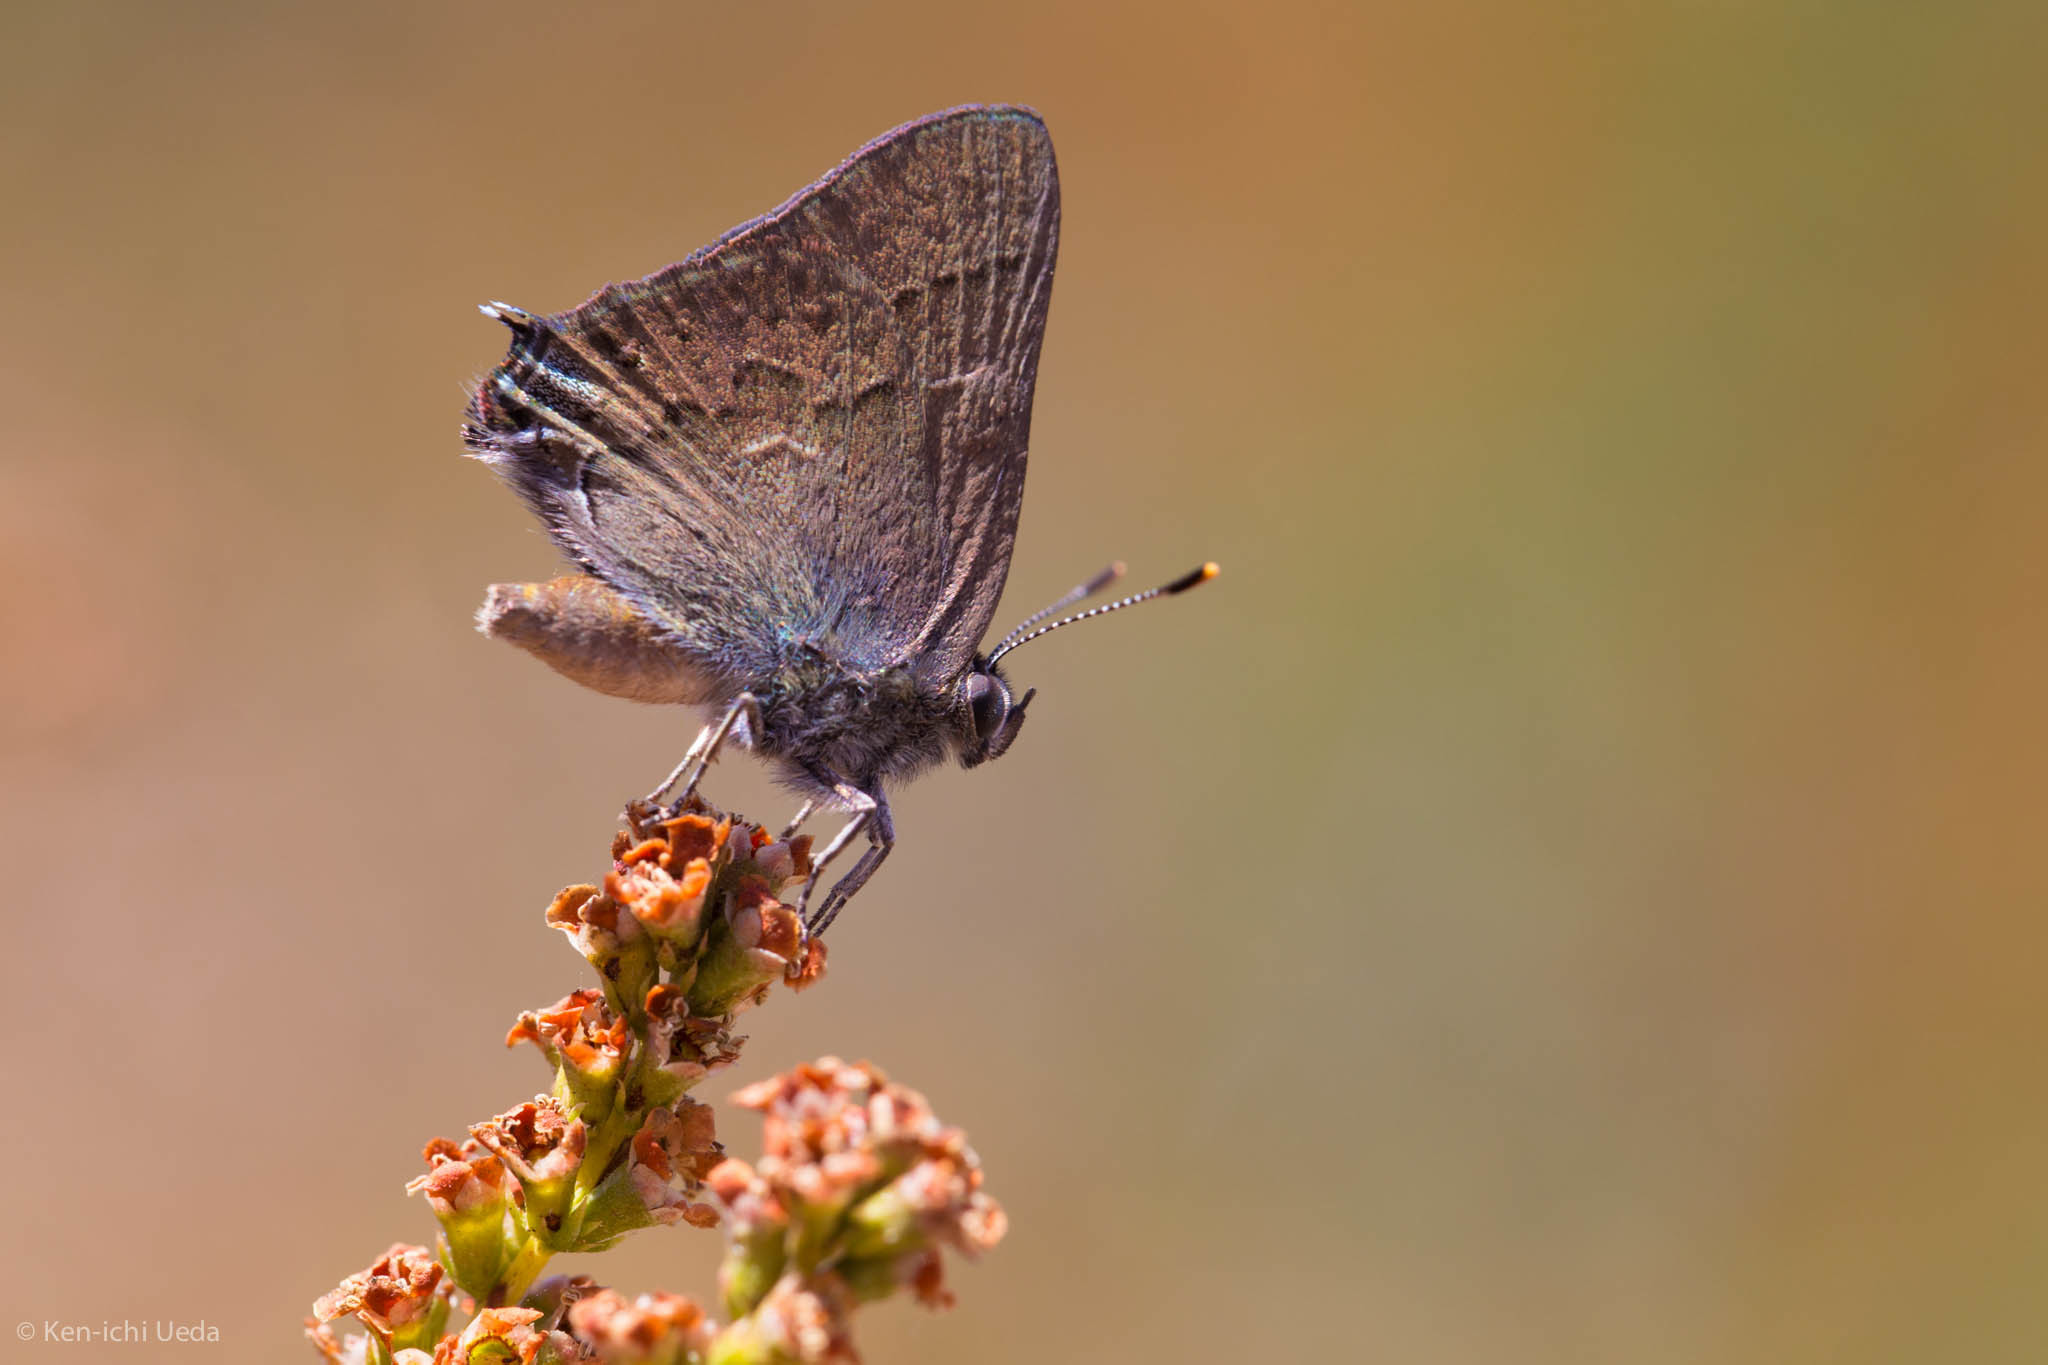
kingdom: Animalia
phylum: Arthropoda
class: Insecta
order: Lepidoptera
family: Lycaenidae
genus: Strymon
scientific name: Strymon saepium
